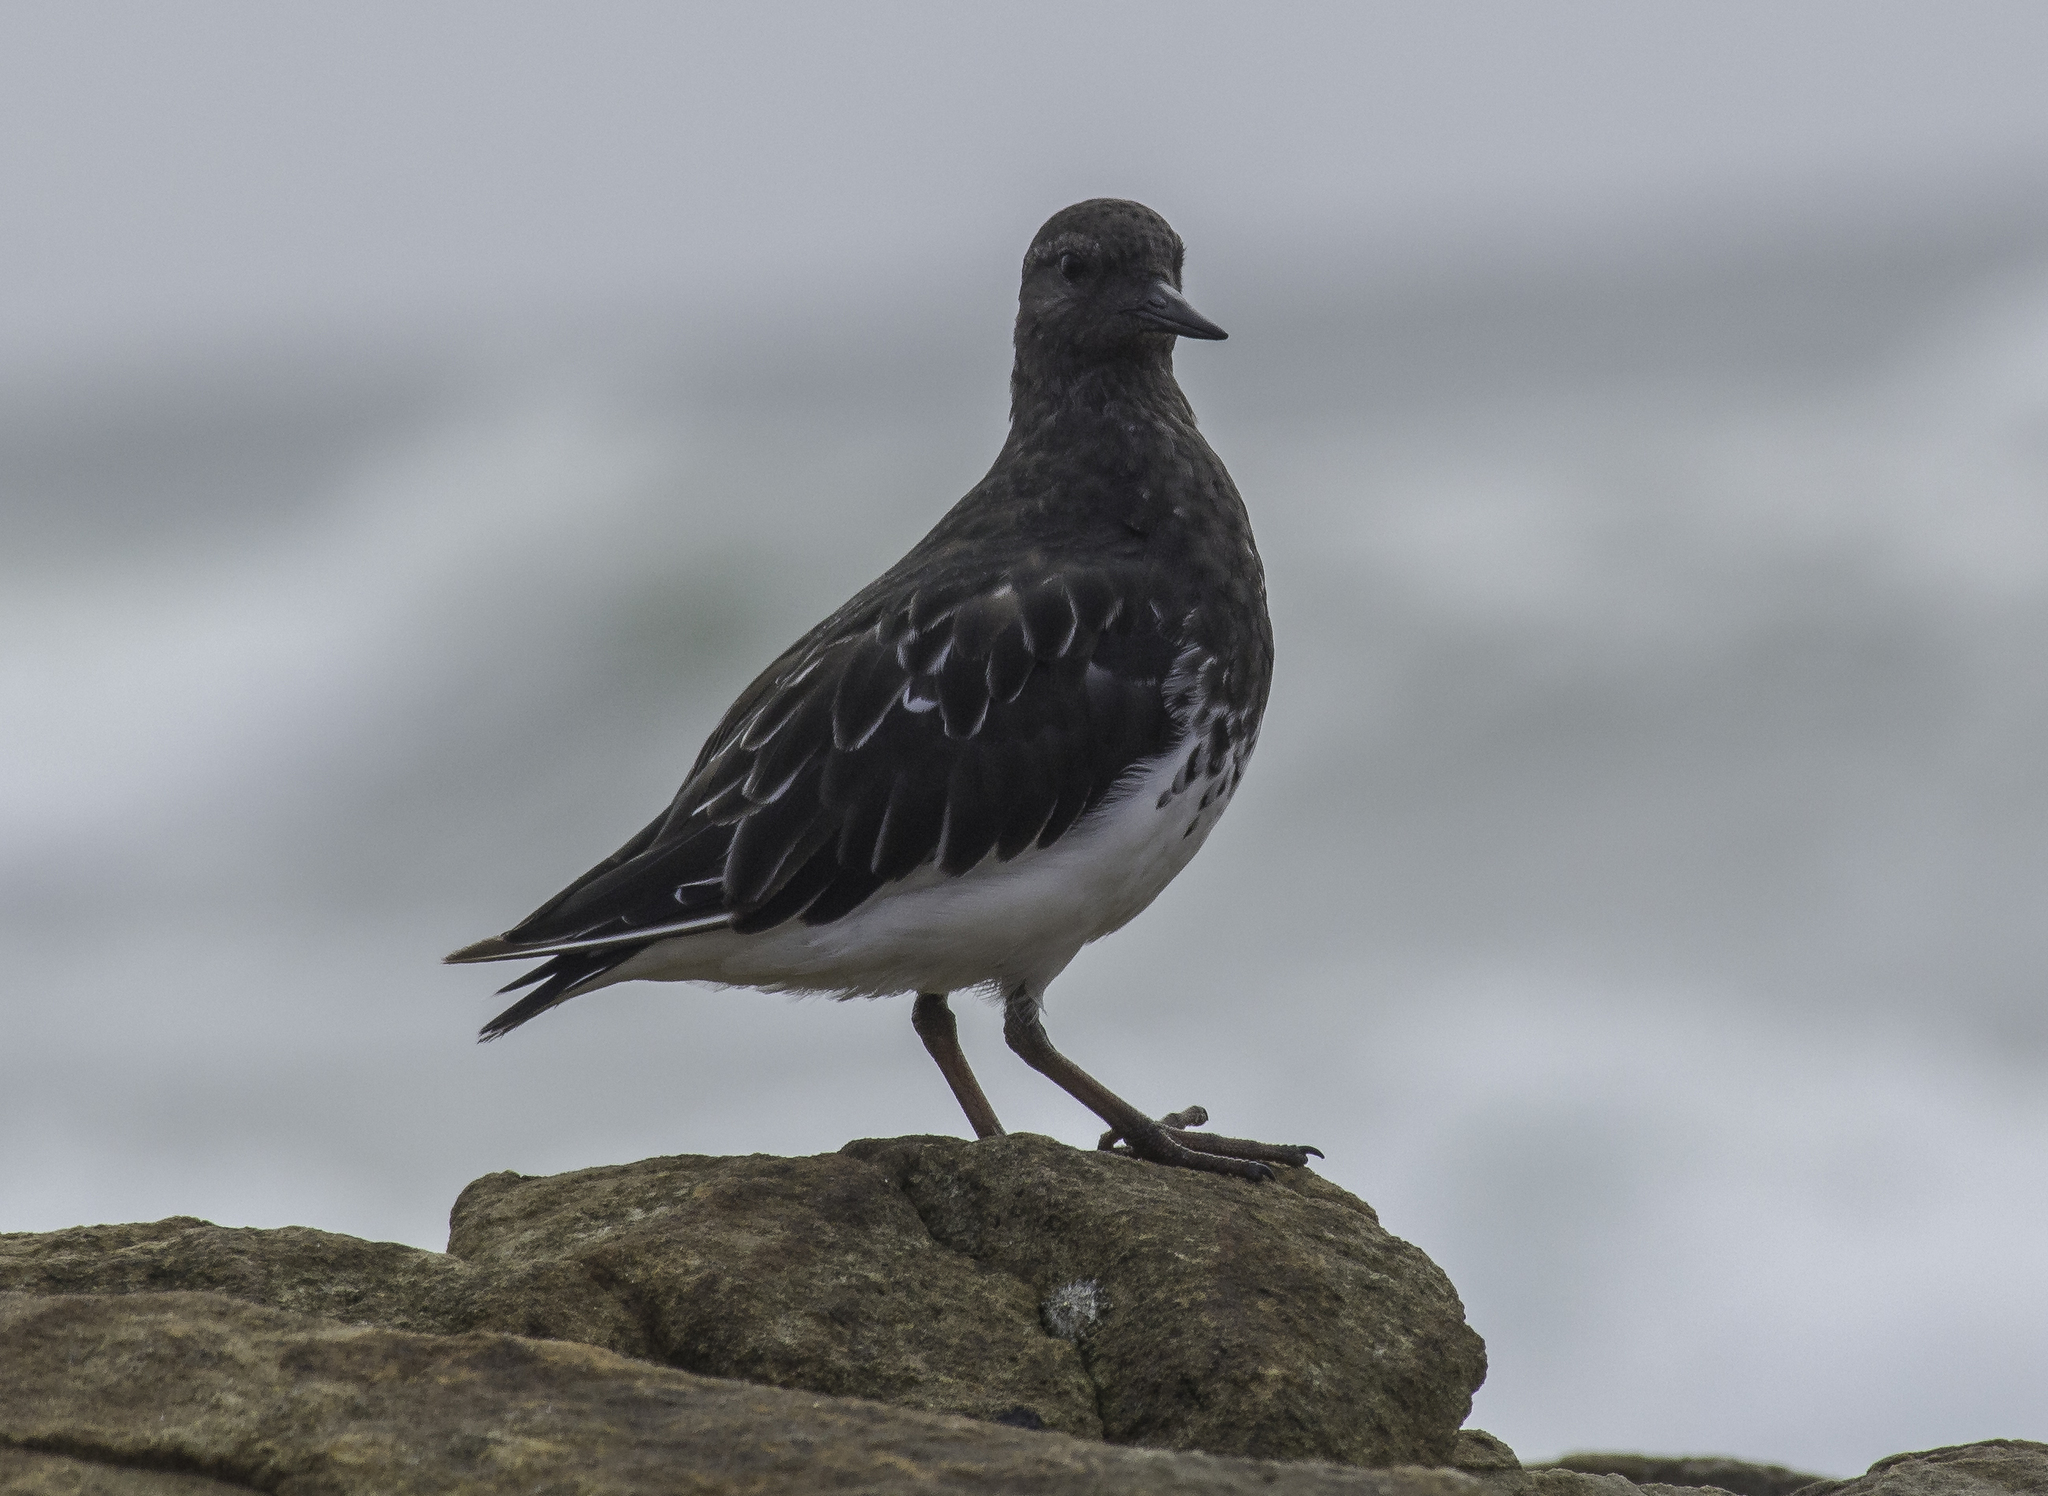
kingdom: Animalia
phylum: Chordata
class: Aves
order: Charadriiformes
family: Scolopacidae
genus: Arenaria
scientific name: Arenaria melanocephala
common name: Black turnstone
